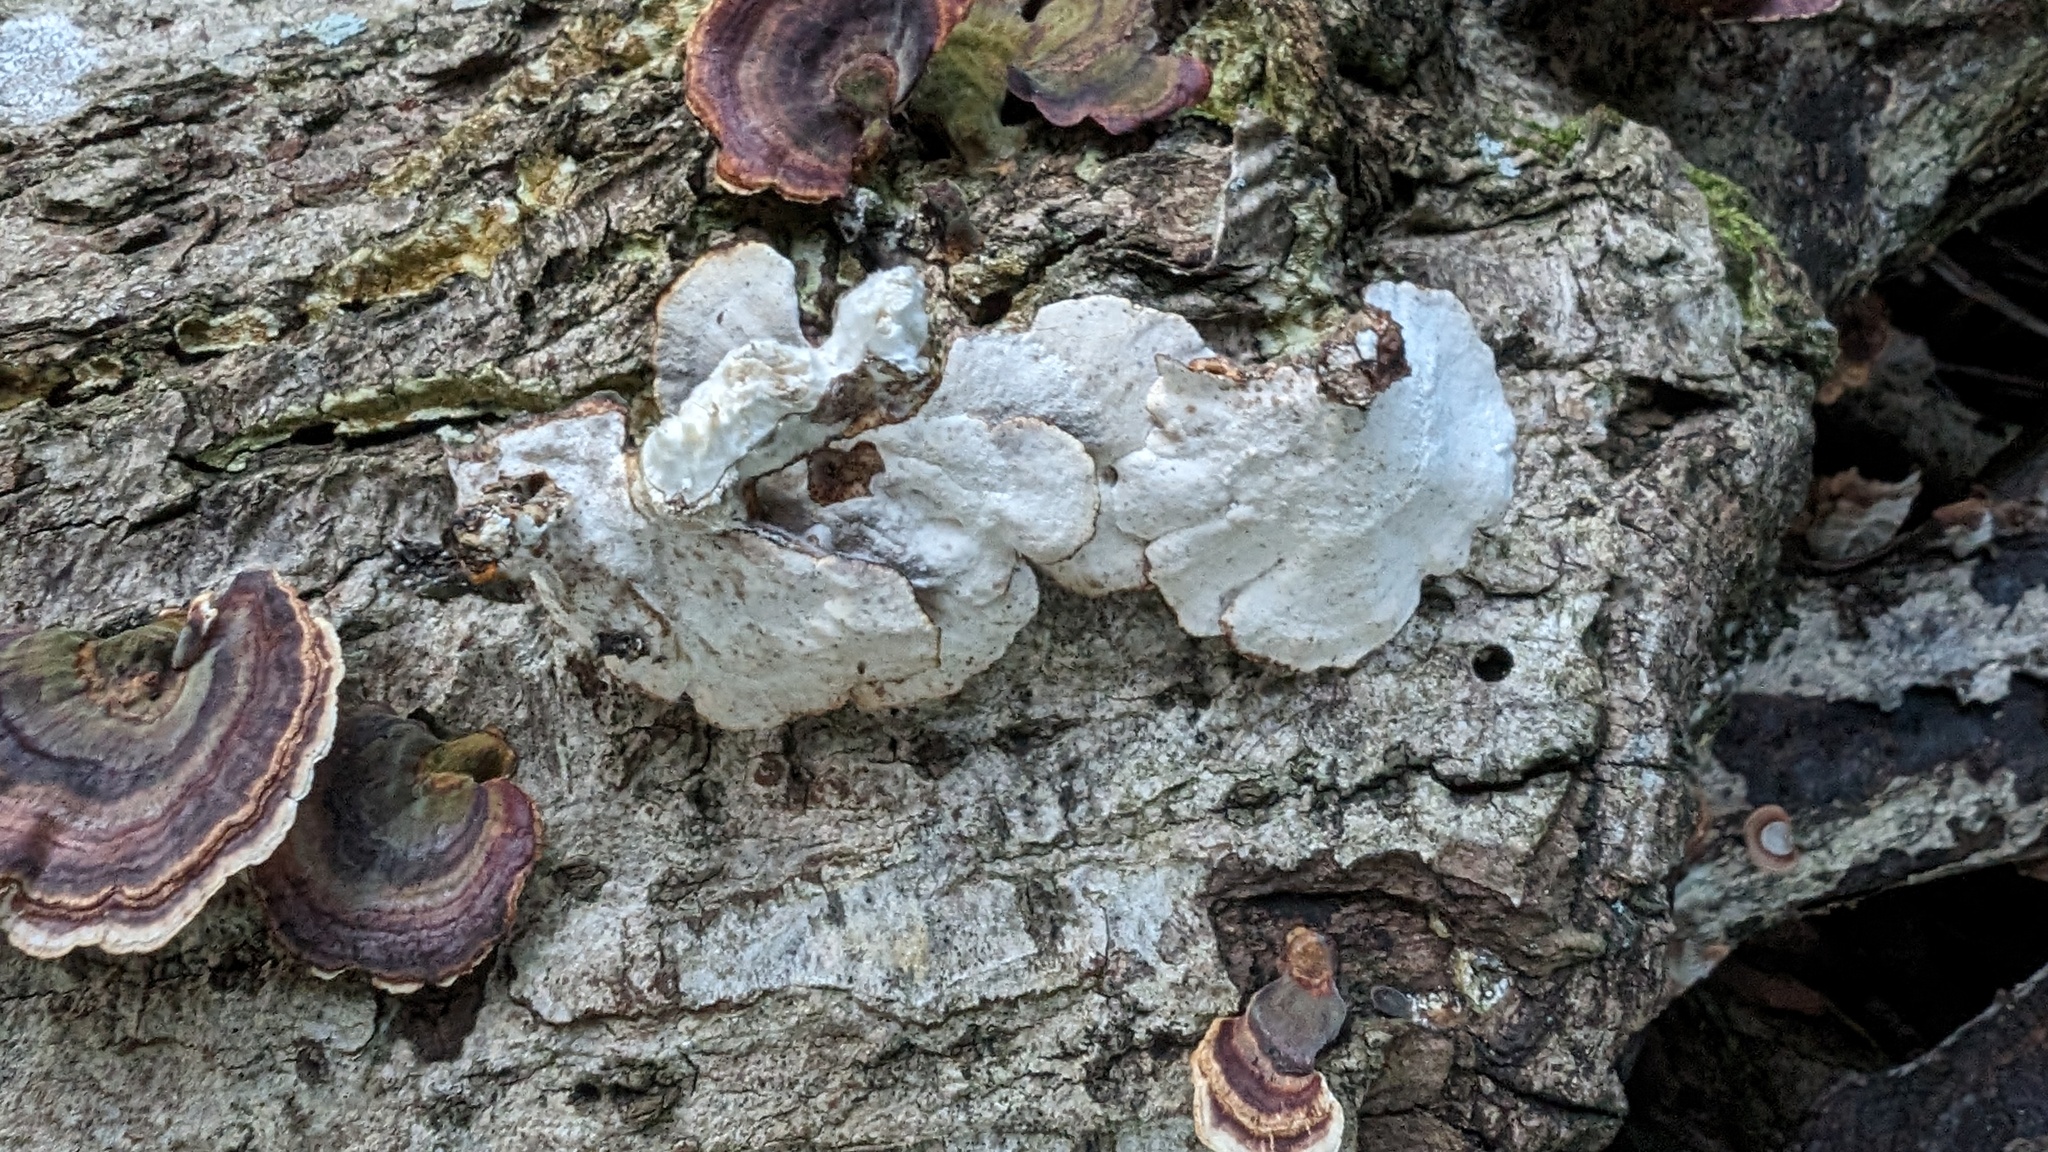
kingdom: Fungi
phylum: Basidiomycota
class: Agaricomycetes
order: Polyporales
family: Polyporaceae
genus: Microporus
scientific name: Microporus affinis
